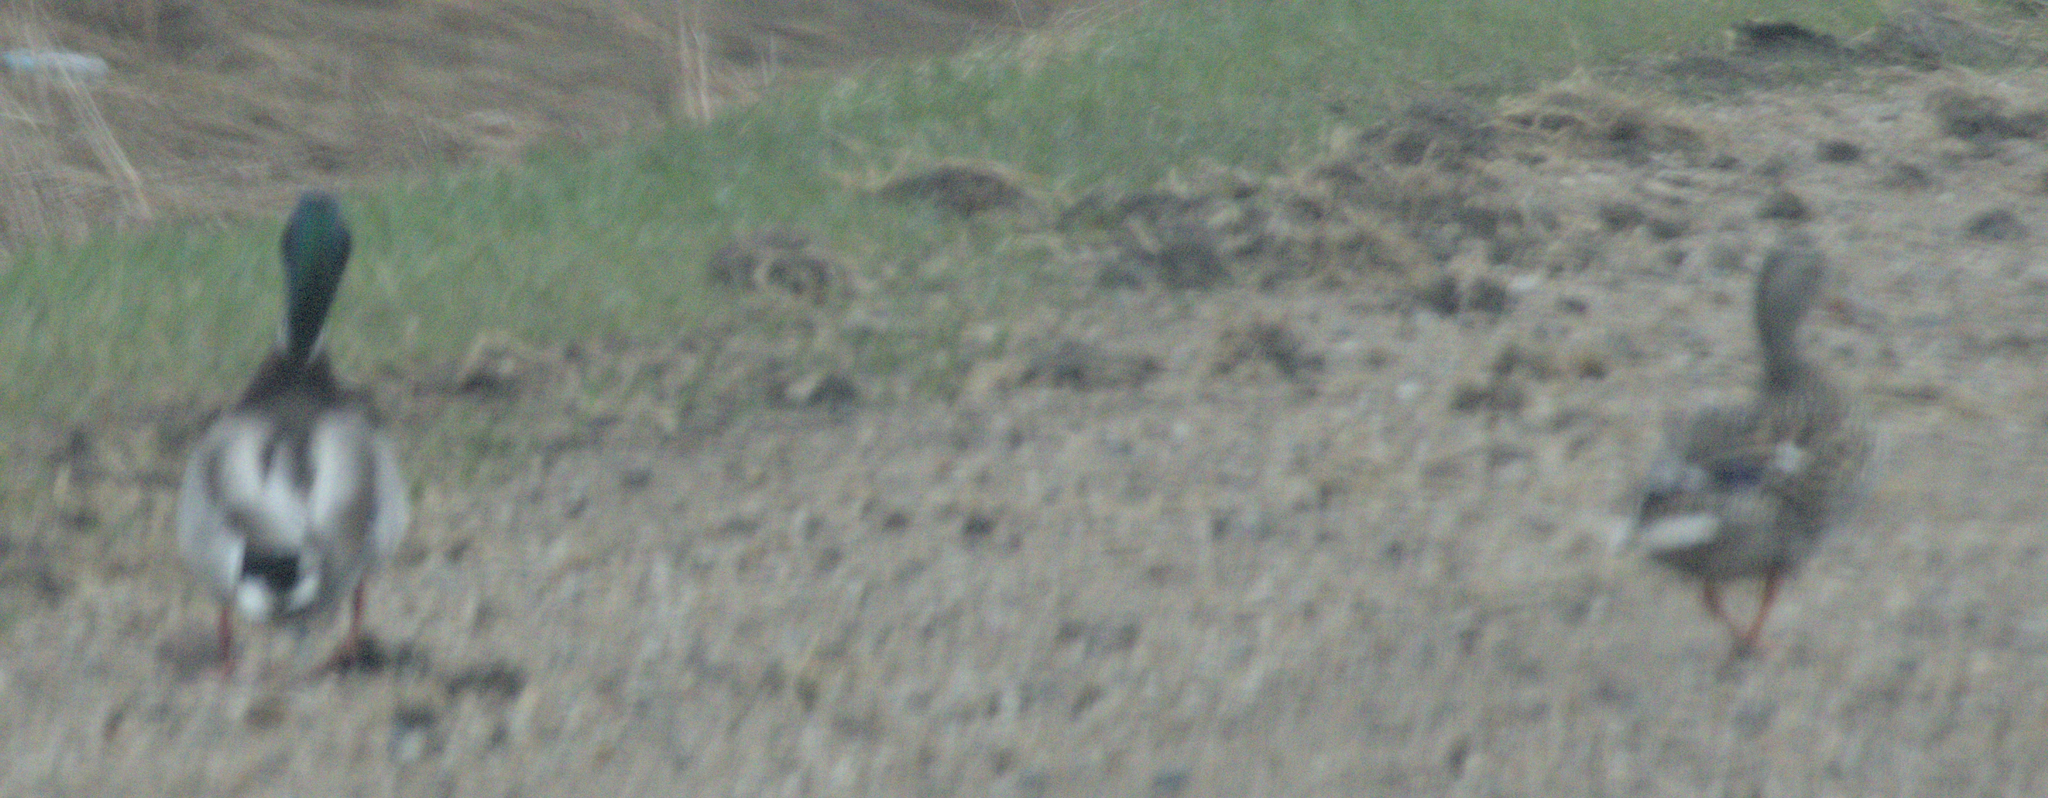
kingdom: Animalia
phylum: Chordata
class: Aves
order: Anseriformes
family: Anatidae
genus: Anas
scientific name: Anas platyrhynchos
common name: Mallard
